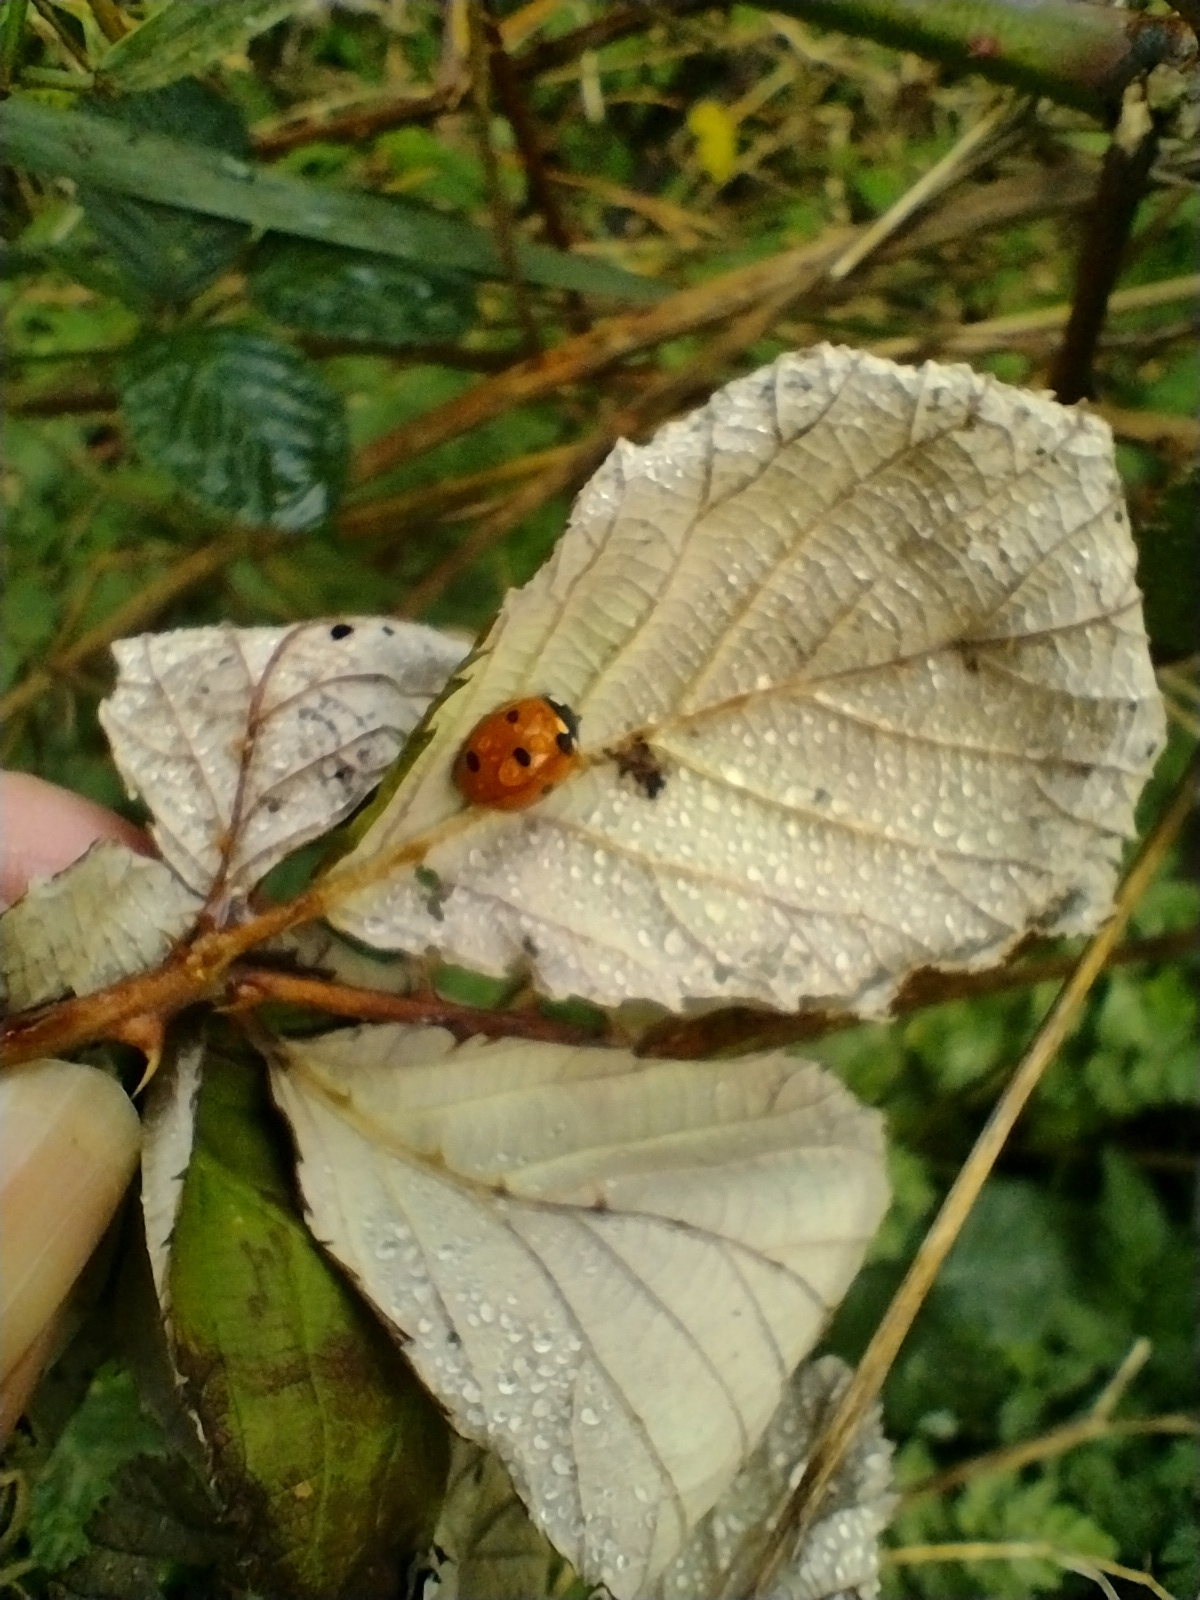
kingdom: Animalia
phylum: Arthropoda
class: Insecta
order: Coleoptera
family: Coccinellidae
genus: Coccinella
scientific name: Coccinella septempunctata
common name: Sevenspotted lady beetle
